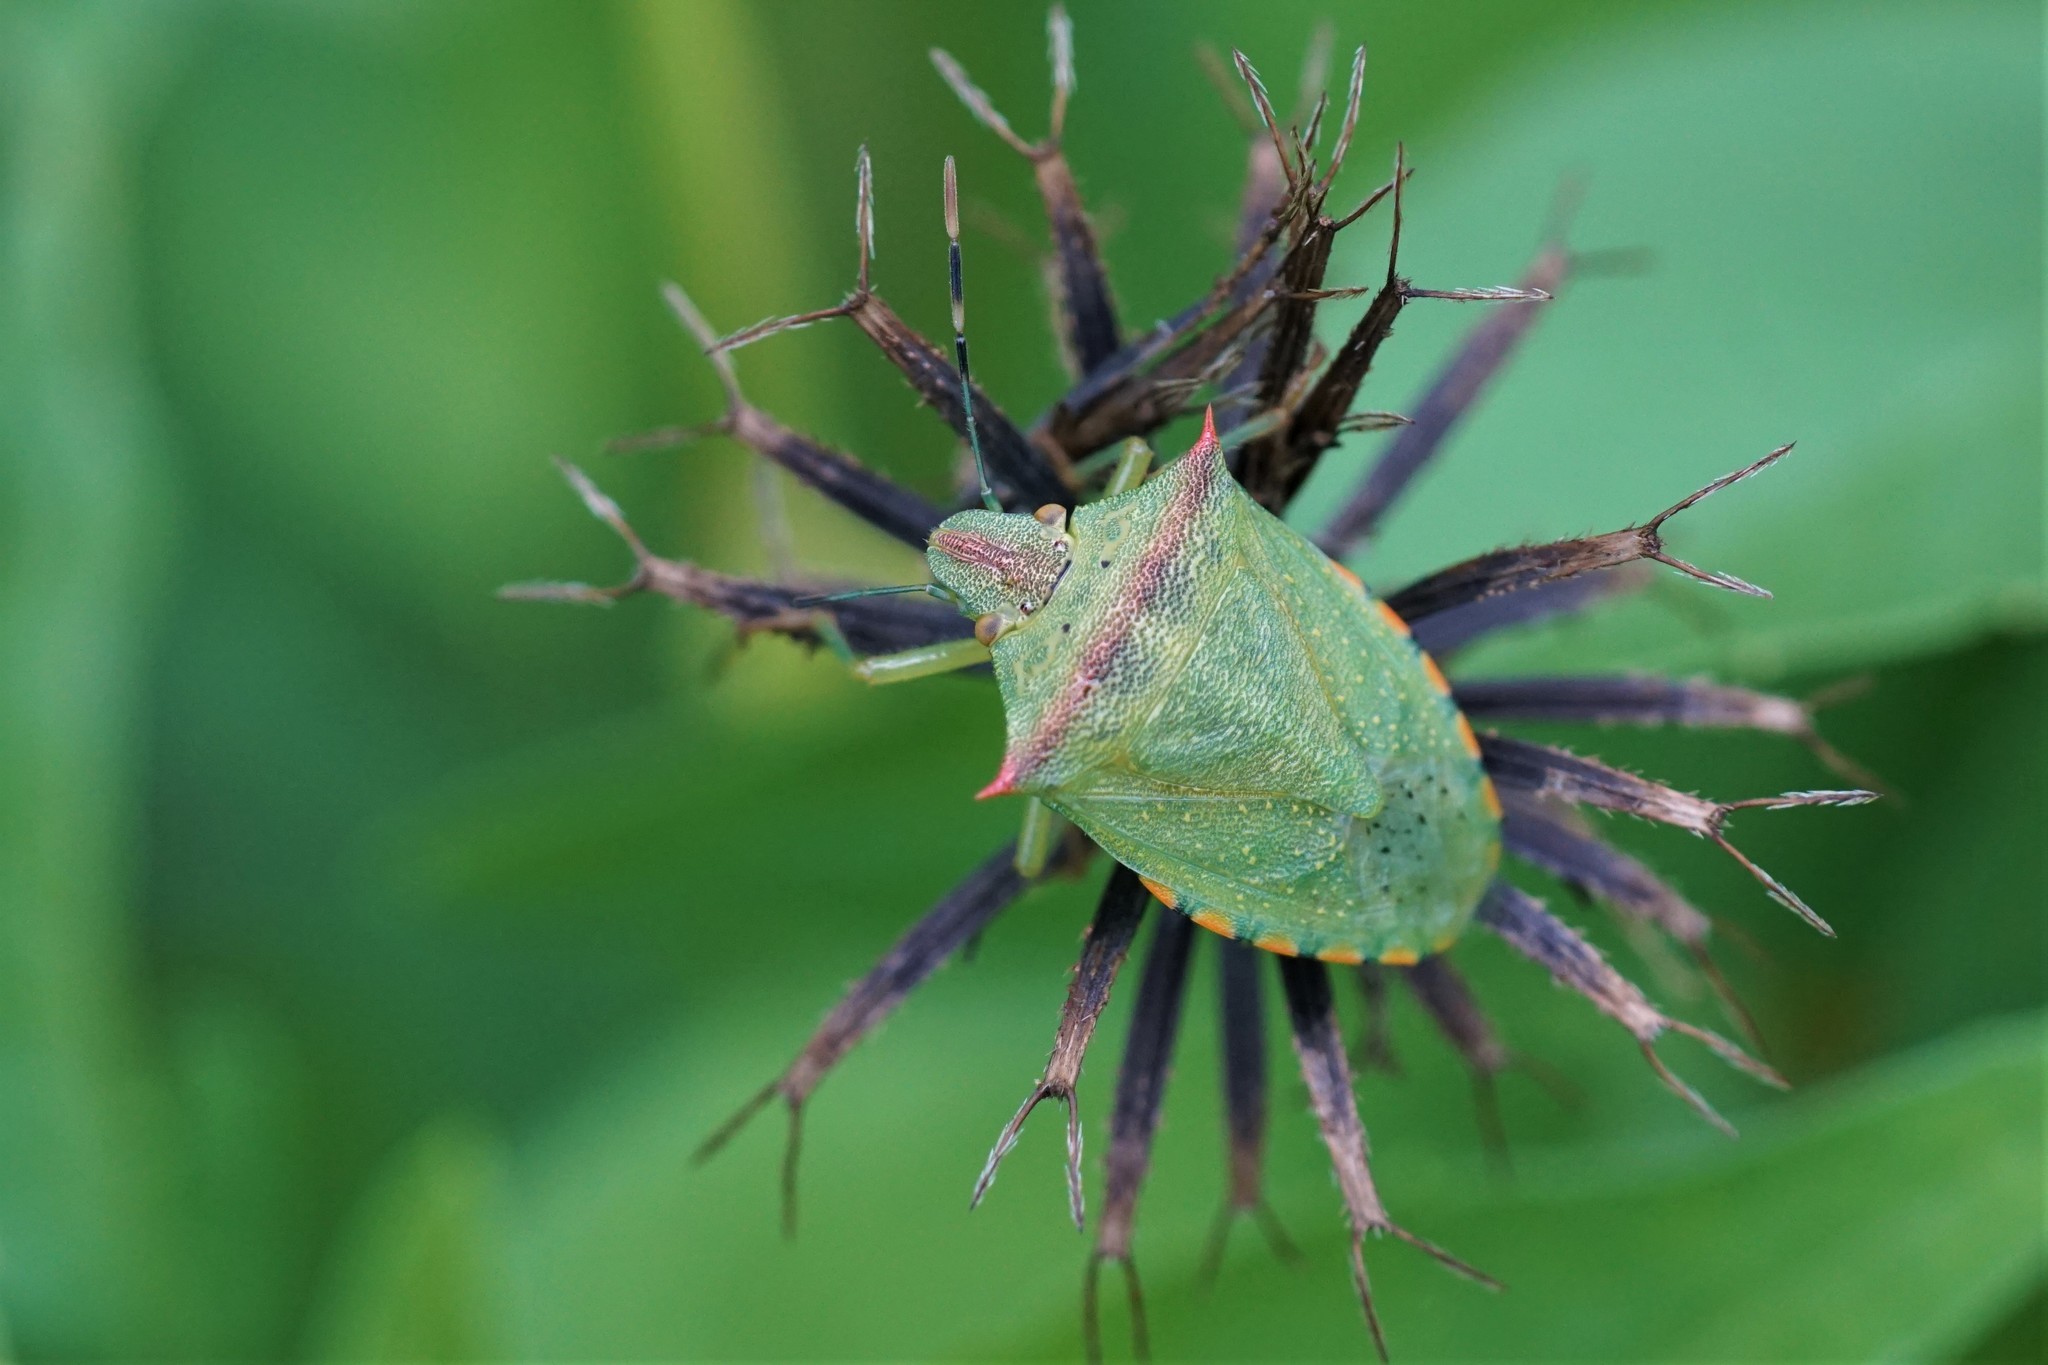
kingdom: Animalia
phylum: Arthropoda
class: Insecta
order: Hemiptera
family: Pentatomidae
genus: Thyanta
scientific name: Thyanta perditor
